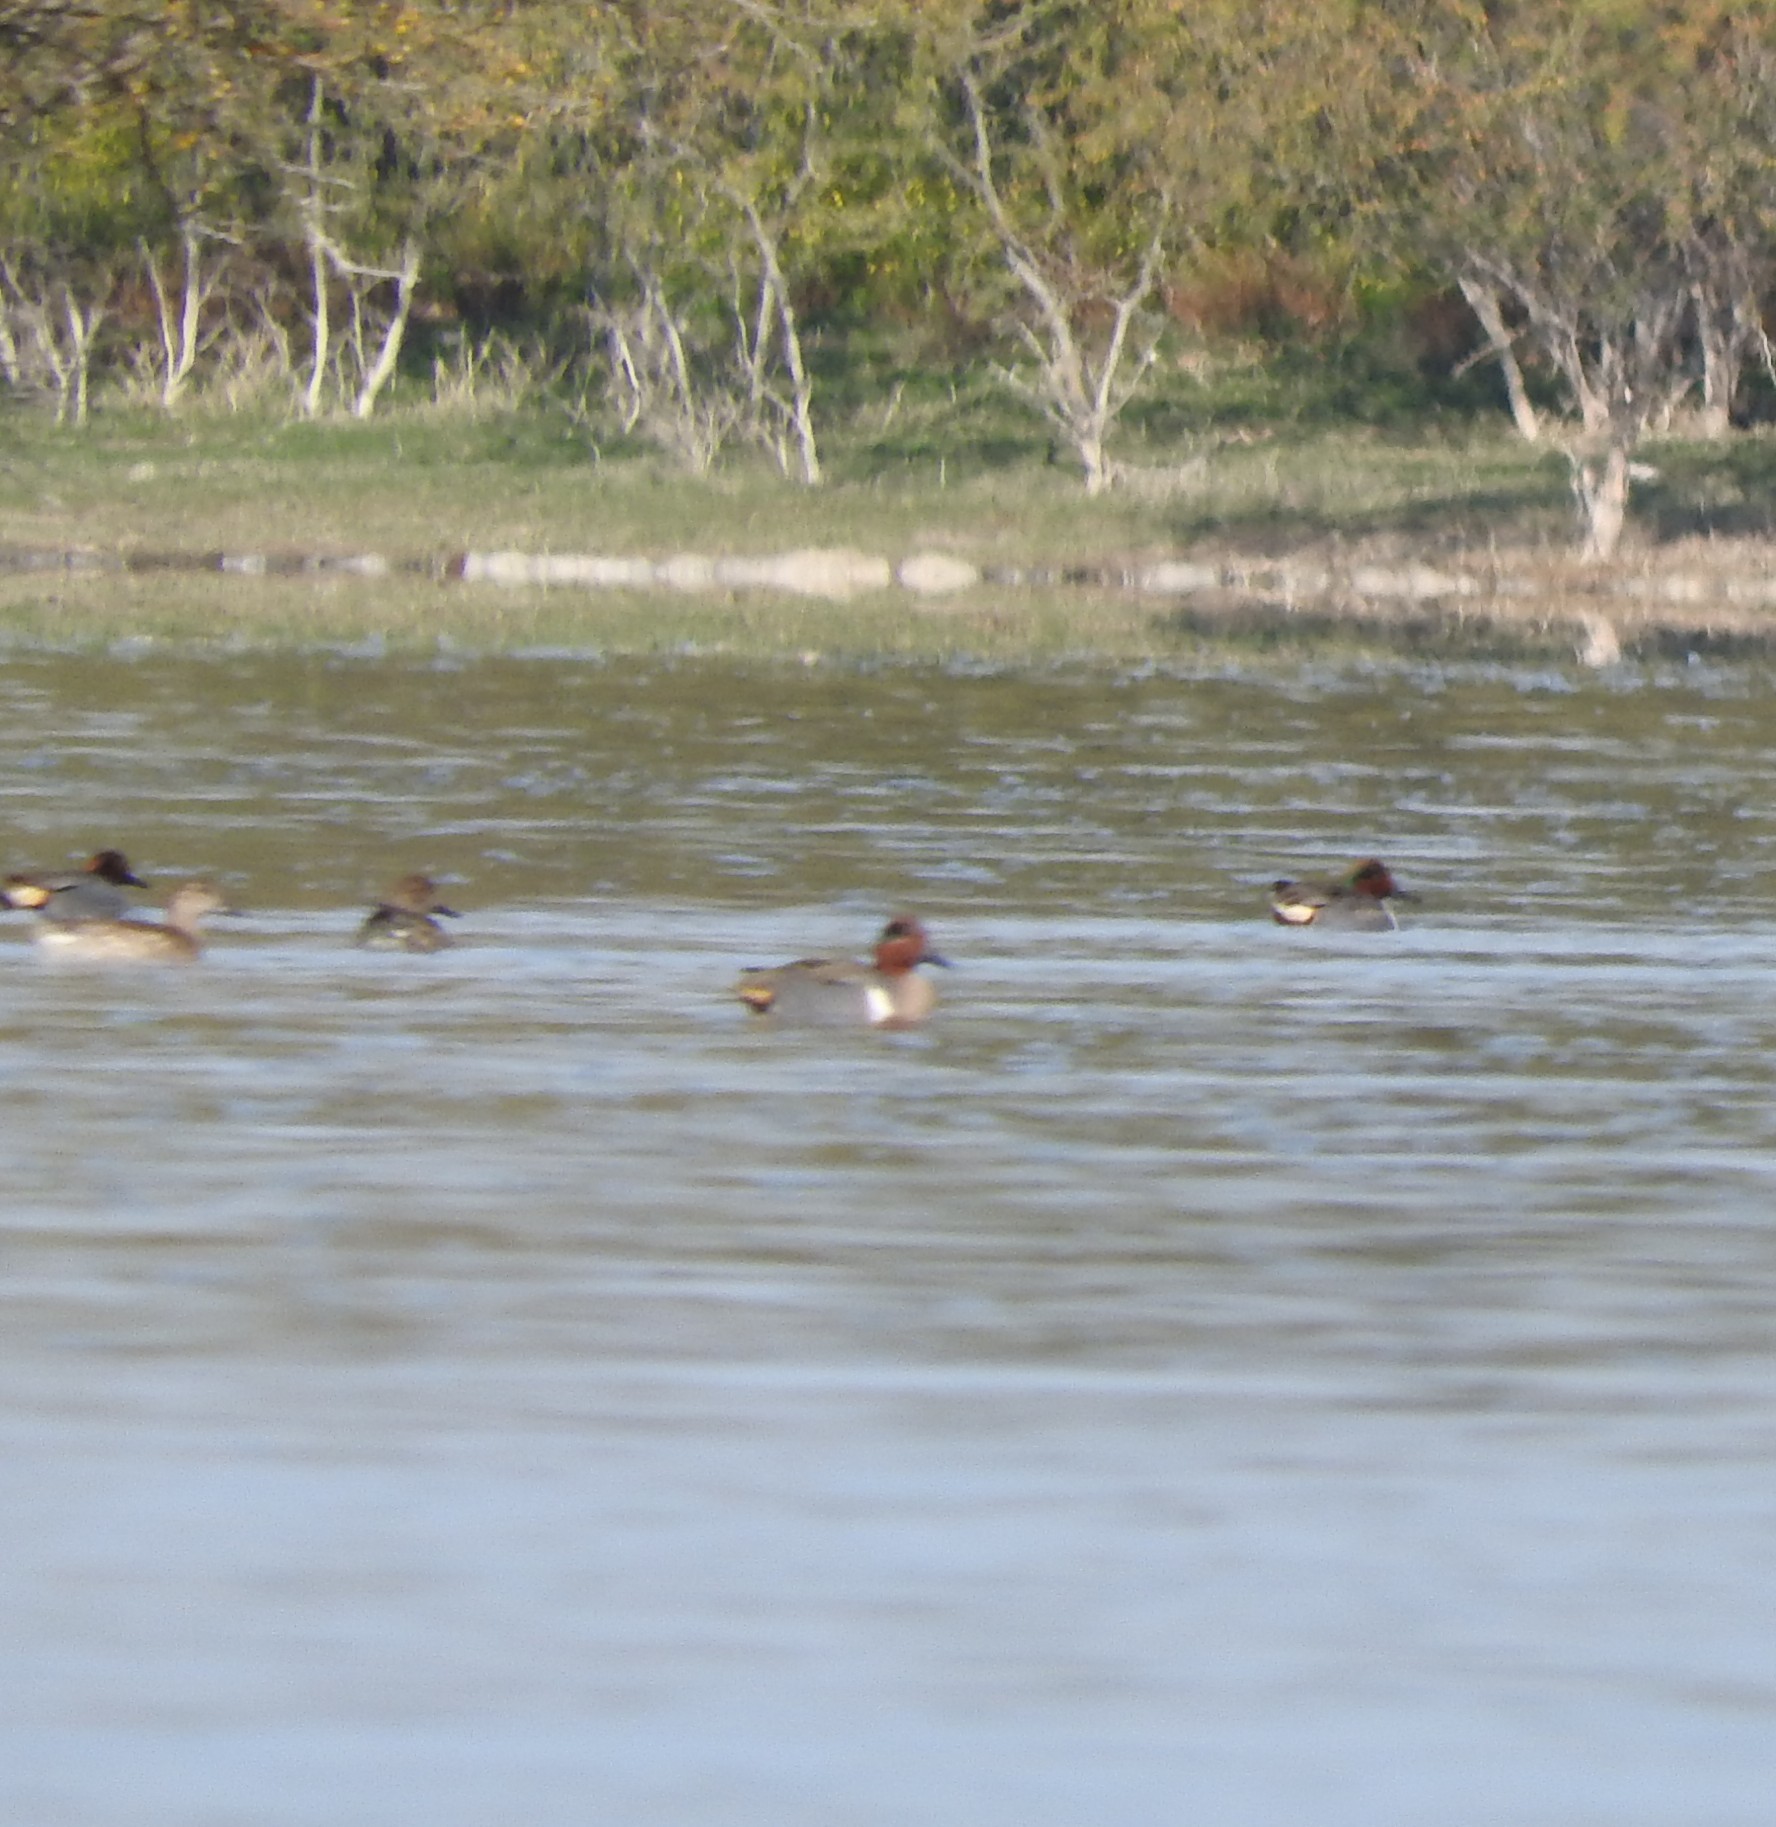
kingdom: Animalia
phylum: Chordata
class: Aves
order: Anseriformes
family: Anatidae
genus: Anas
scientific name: Anas carolinensis
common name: Green-winged teal
